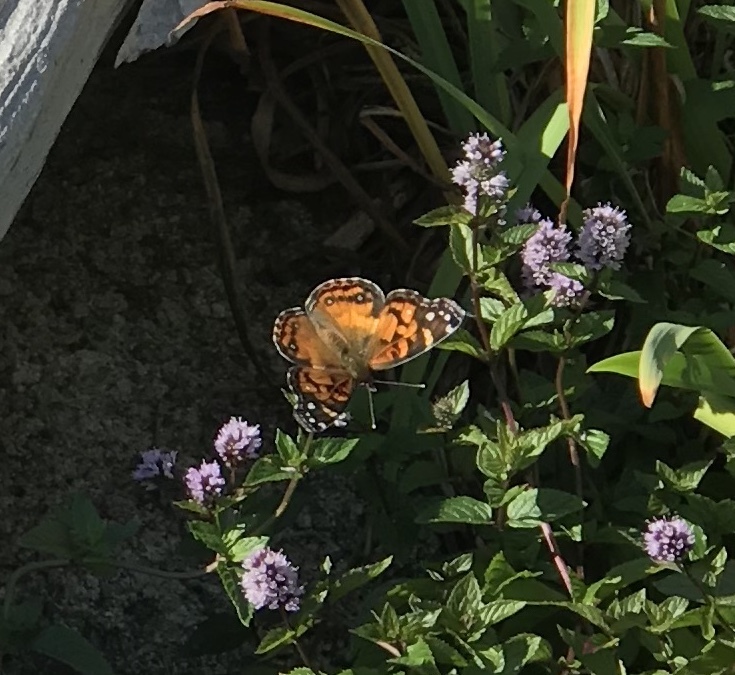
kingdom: Animalia
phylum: Arthropoda
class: Insecta
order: Lepidoptera
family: Nymphalidae
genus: Vanessa
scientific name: Vanessa virginiensis
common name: American lady
